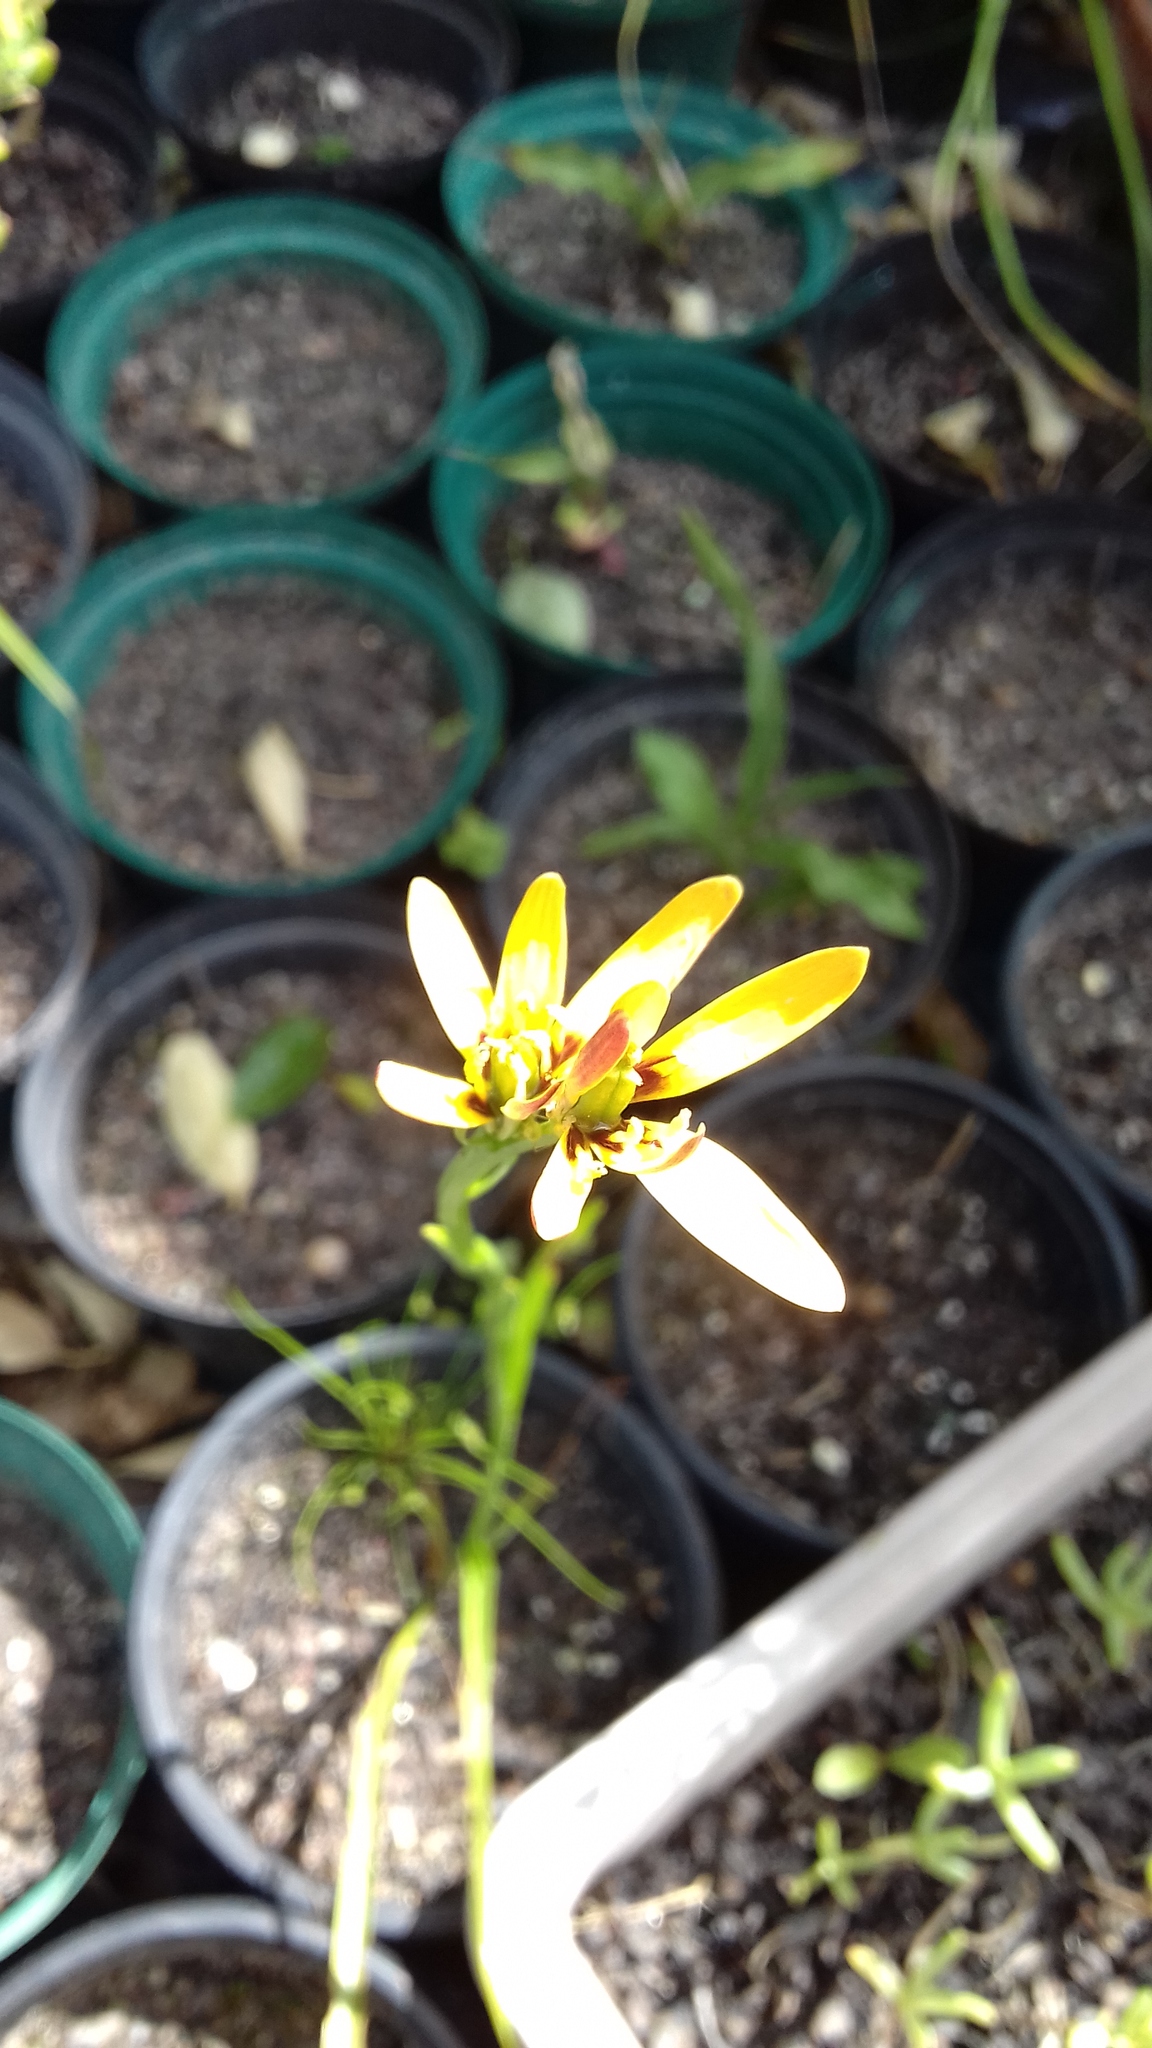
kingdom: Plantae
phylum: Tracheophyta
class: Liliopsida
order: Liliales
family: Colchicaceae
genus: Baeometra
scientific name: Baeometra uniflora
